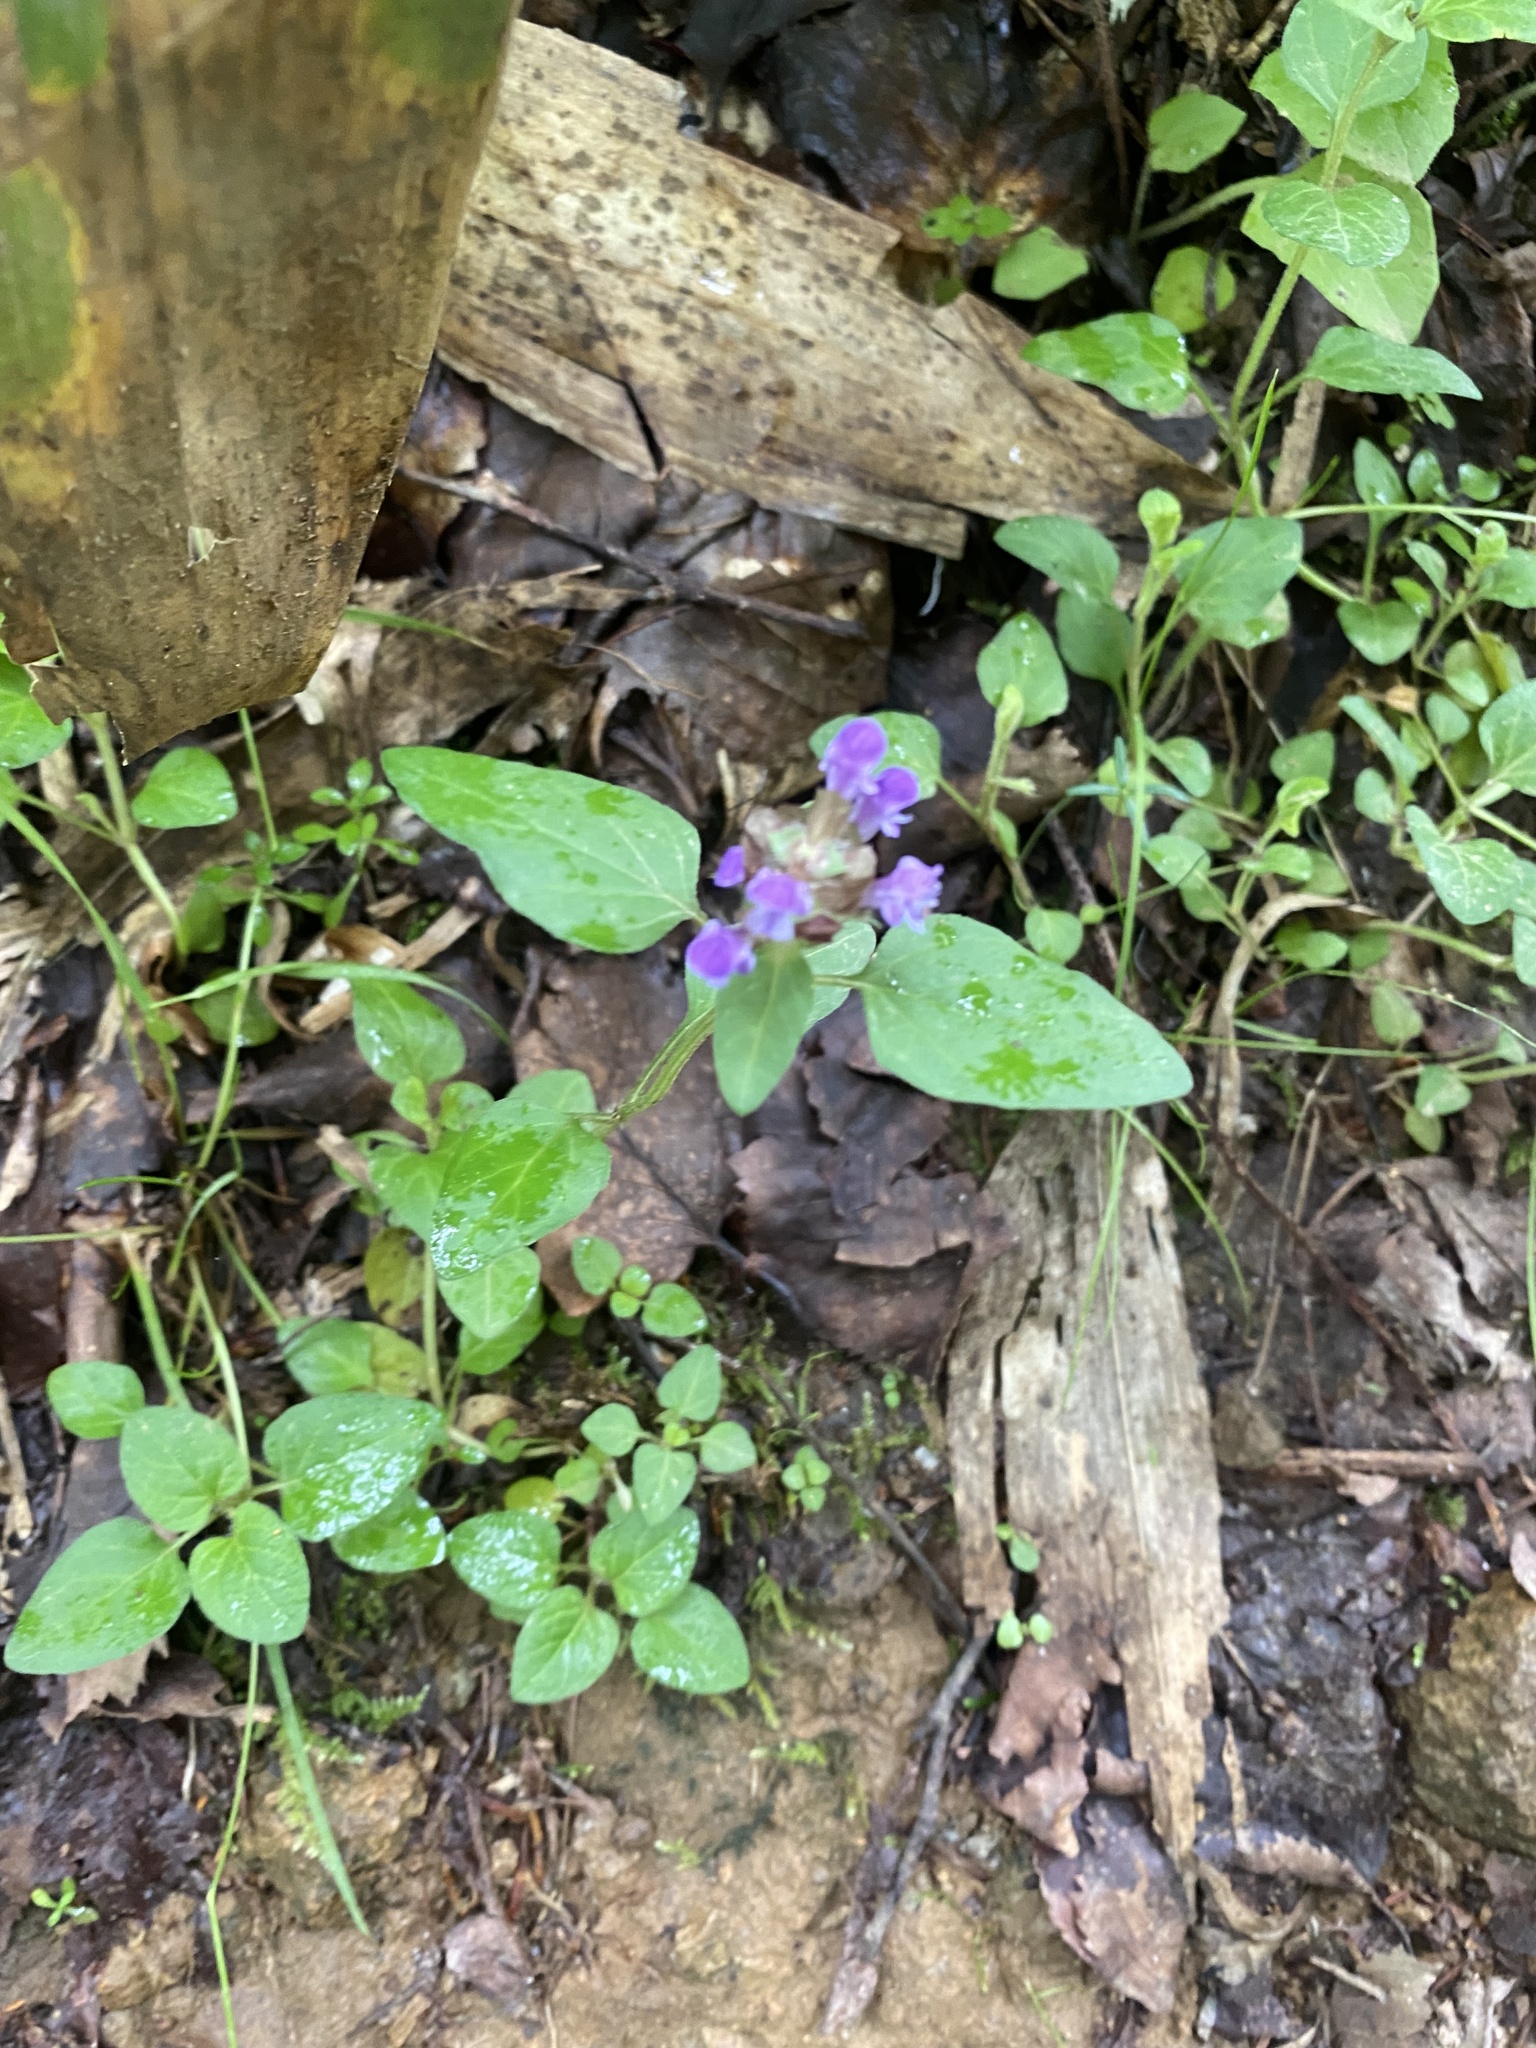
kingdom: Plantae
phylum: Tracheophyta
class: Magnoliopsida
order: Lamiales
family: Lamiaceae
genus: Prunella
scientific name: Prunella vulgaris
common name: Heal-all
